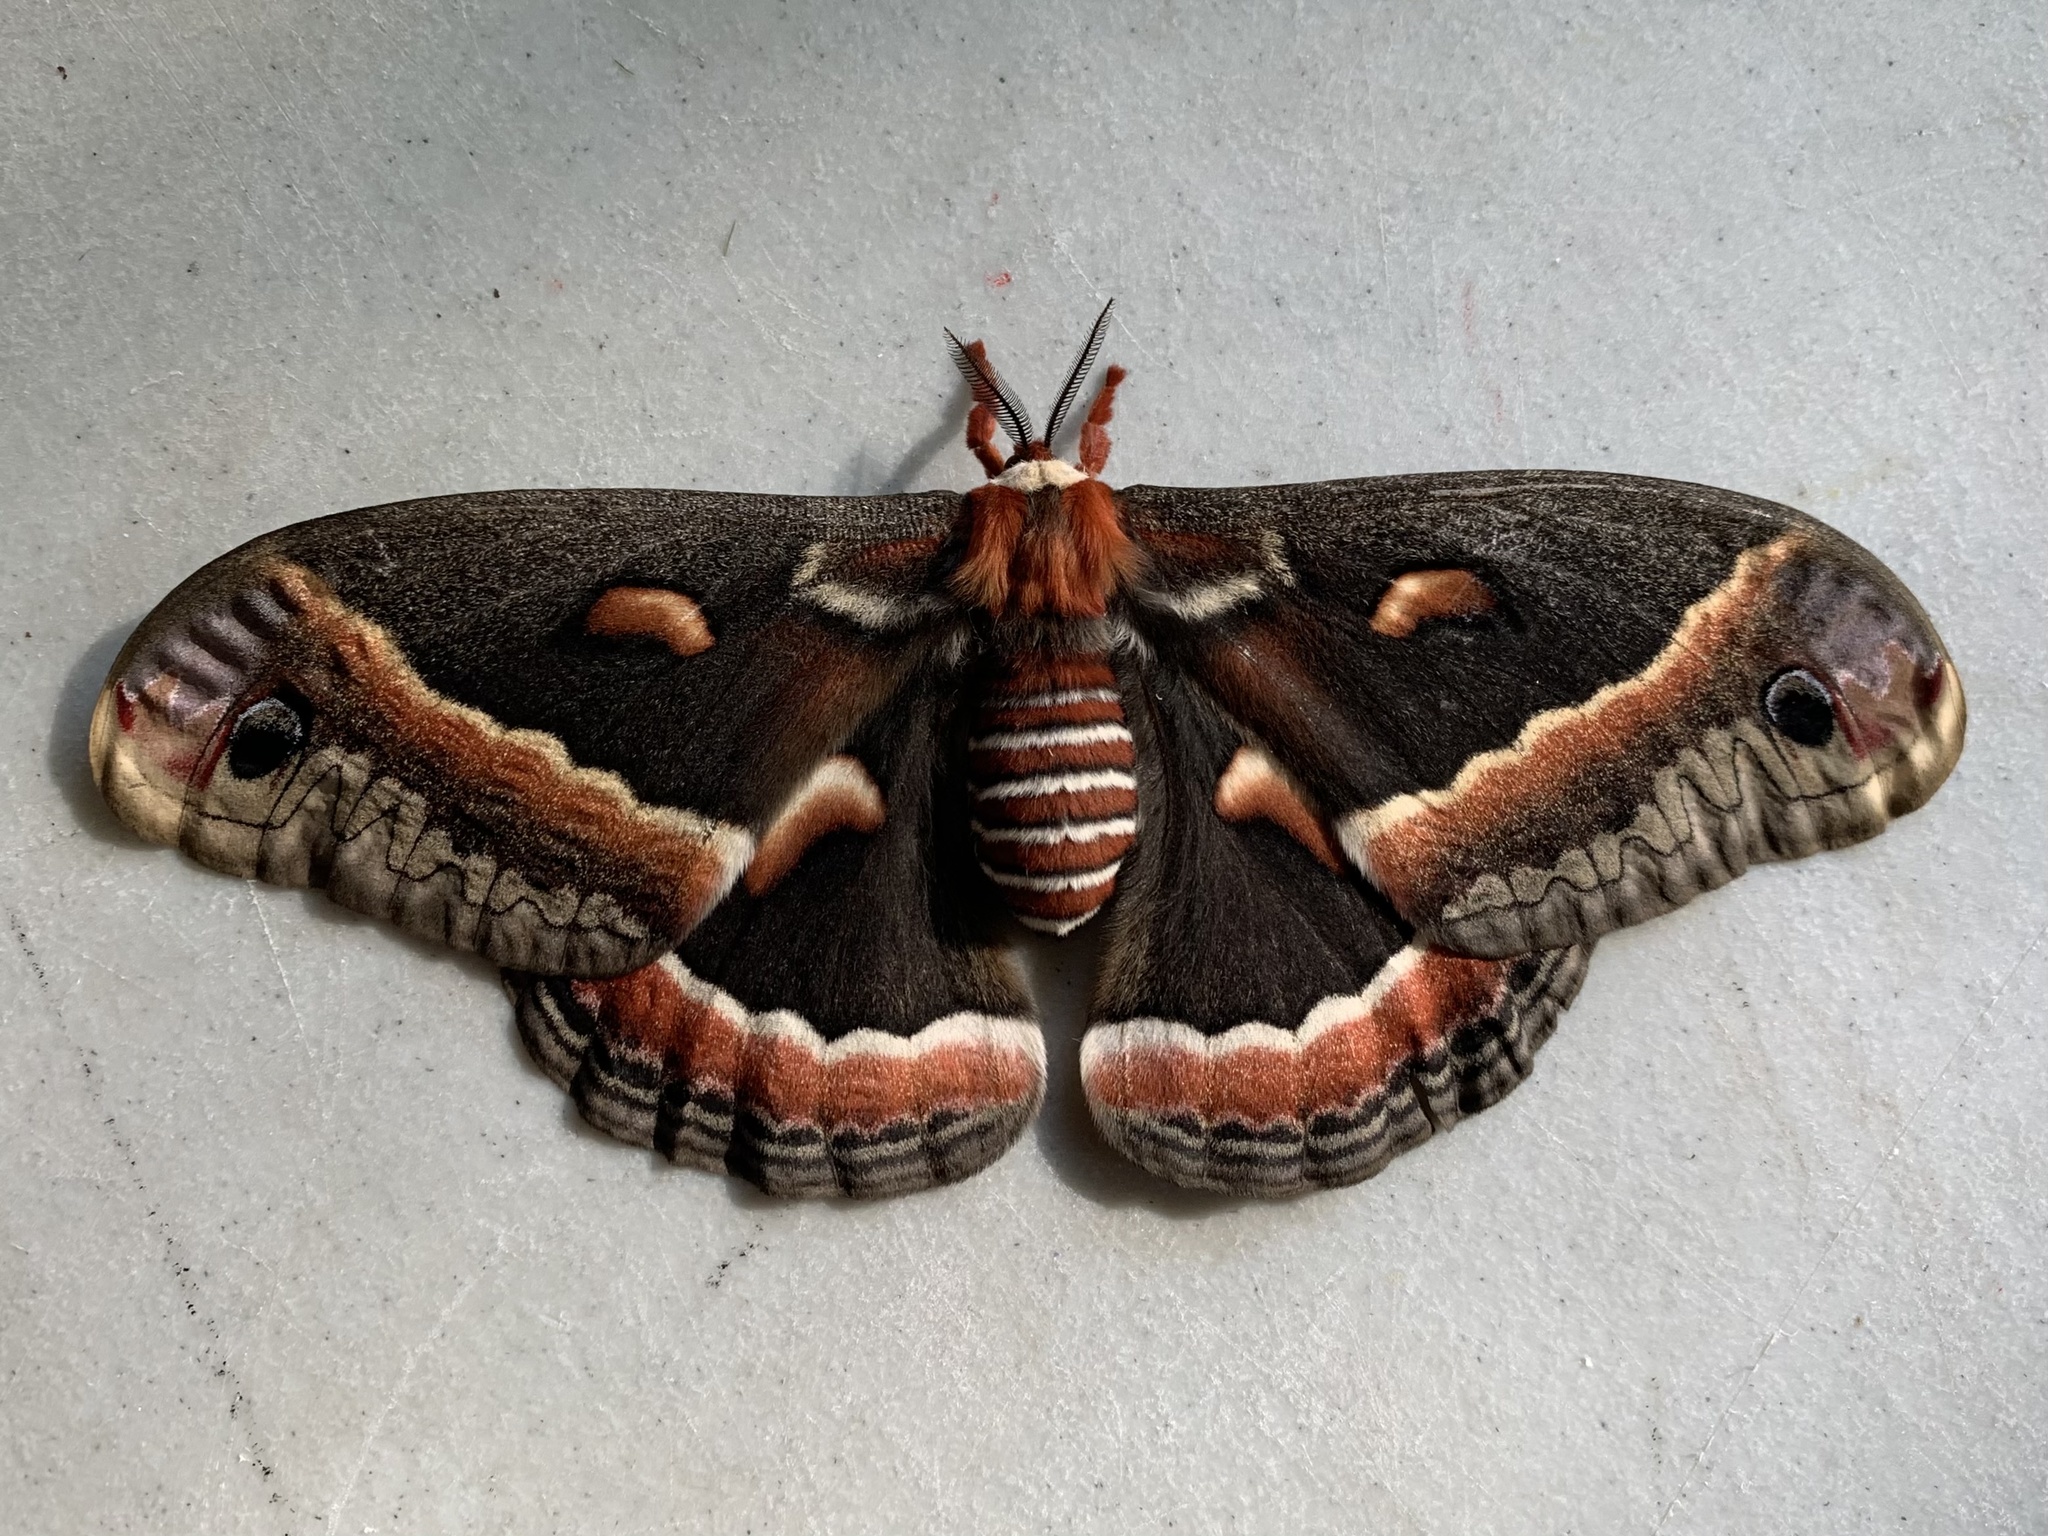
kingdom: Animalia
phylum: Arthropoda
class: Insecta
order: Lepidoptera
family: Saturniidae
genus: Hyalophora
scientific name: Hyalophora cecropia
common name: Cecropia silkmoth
